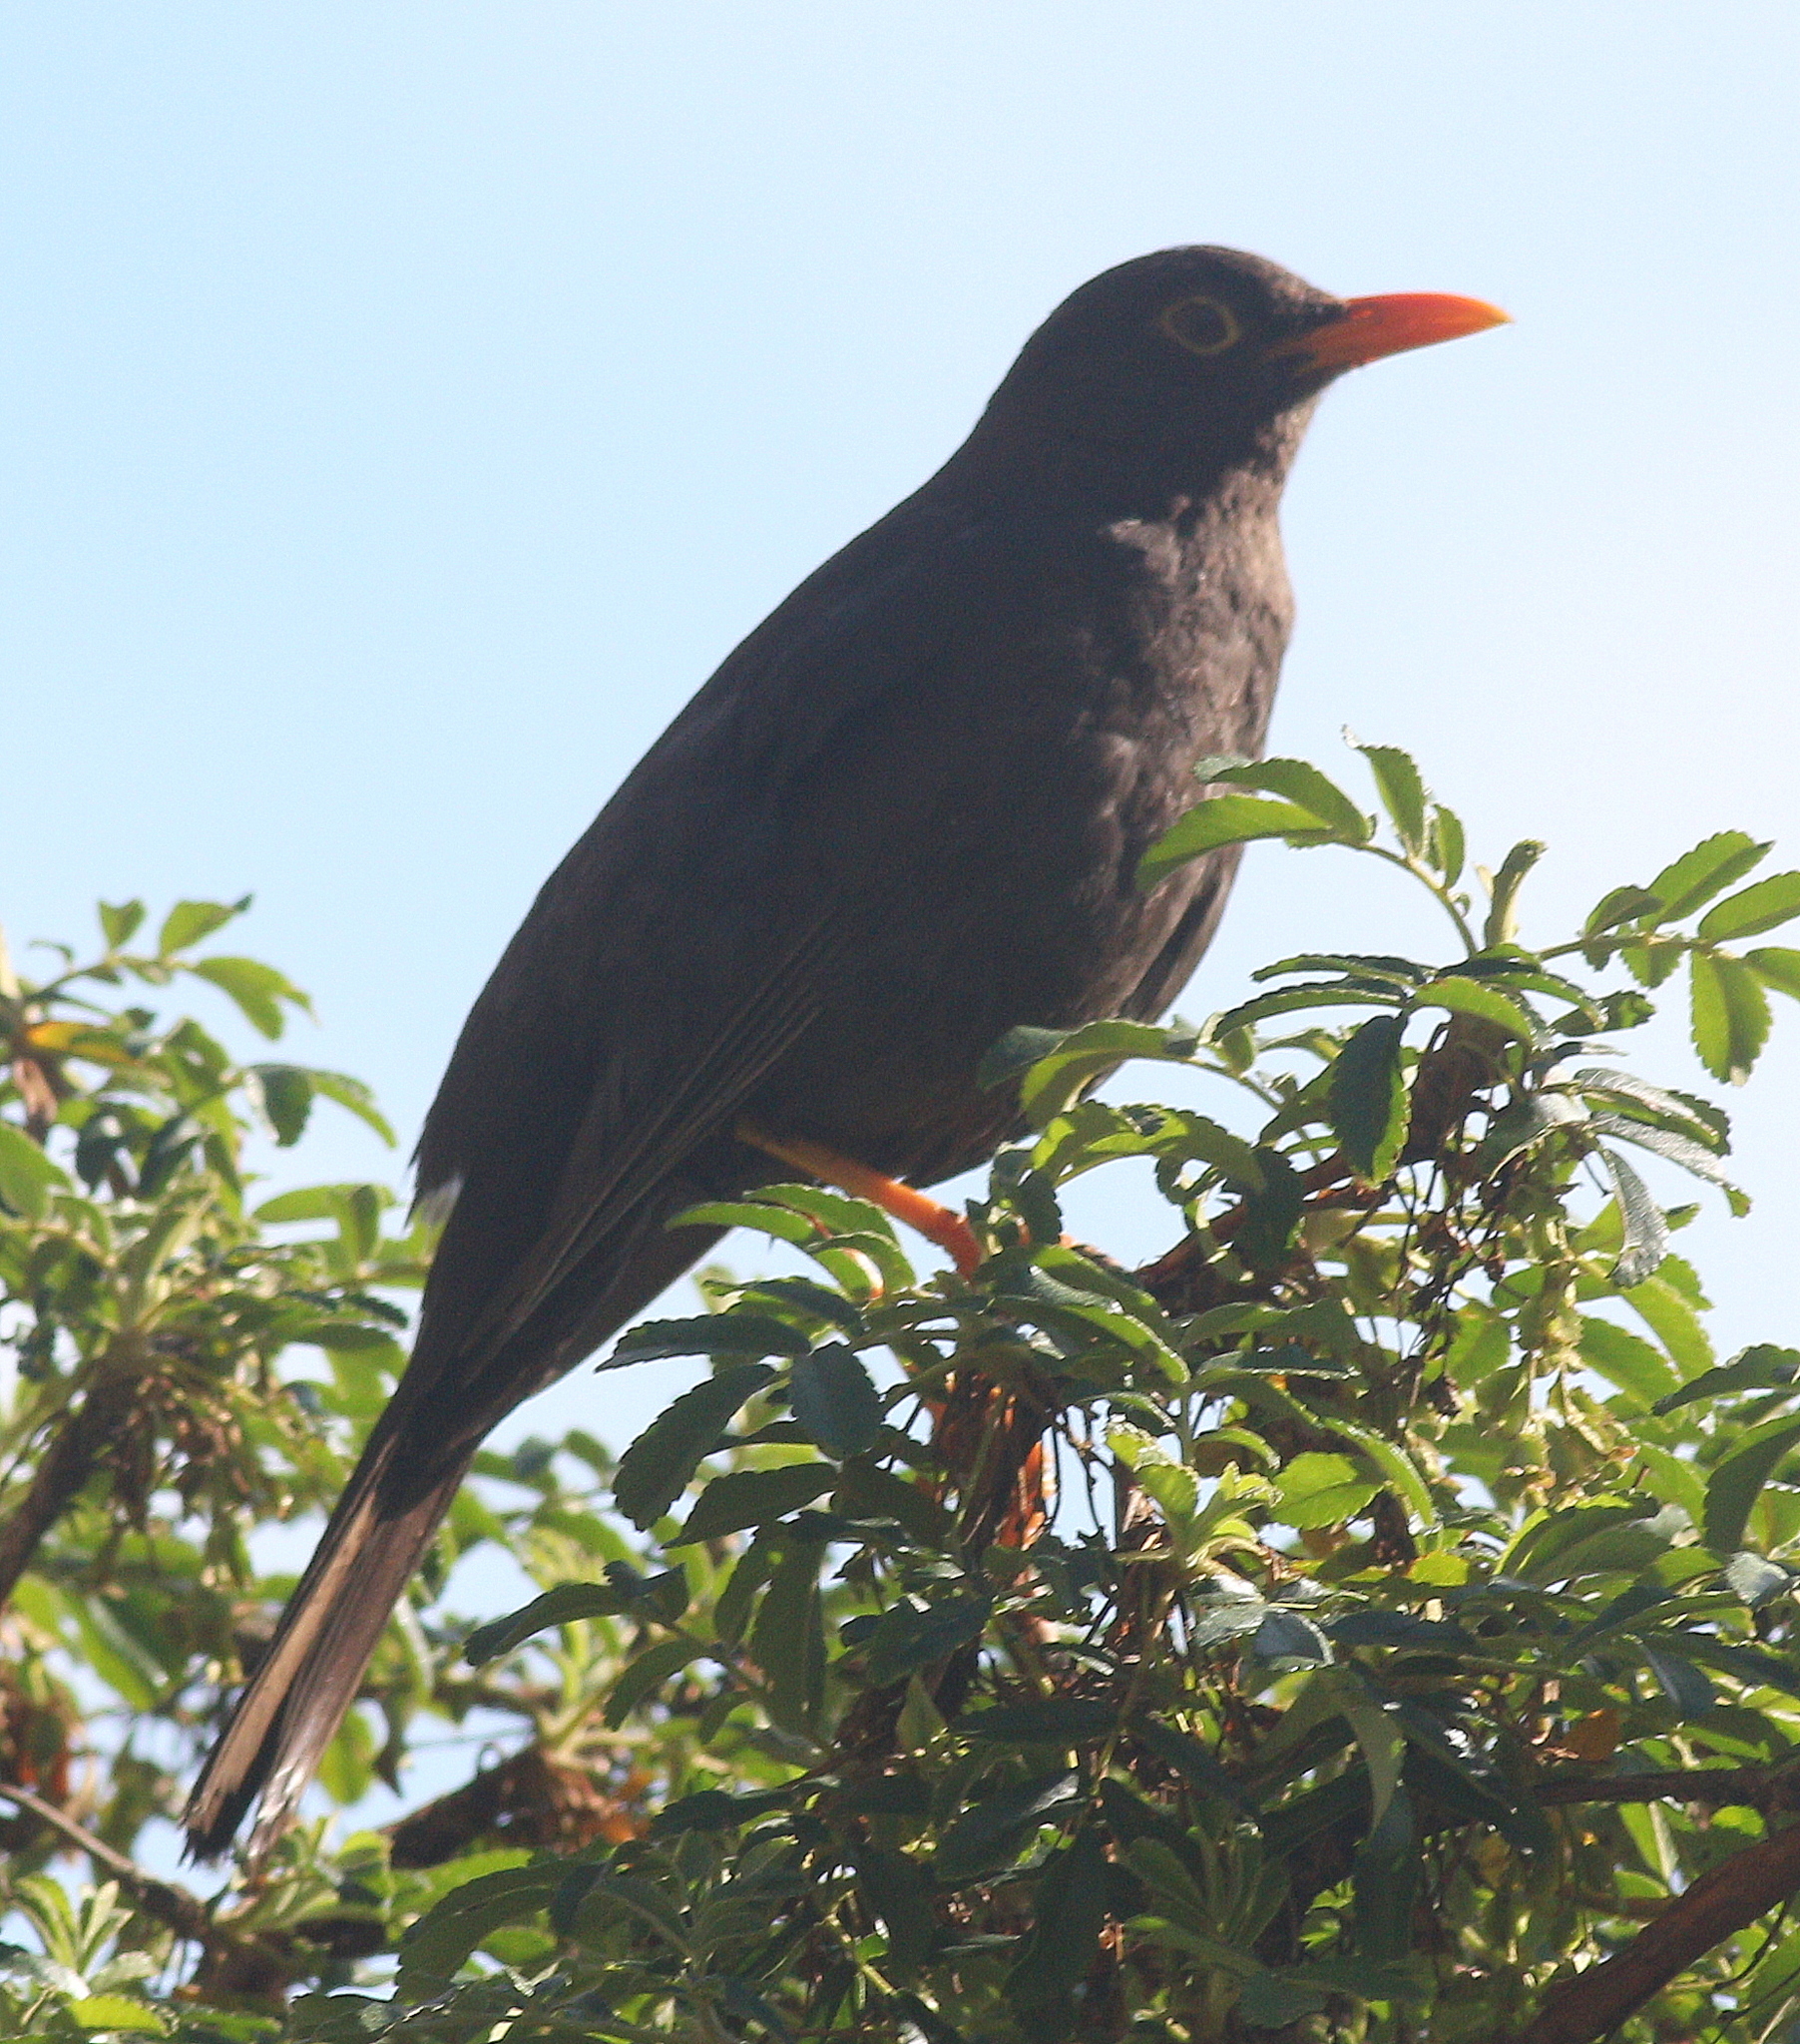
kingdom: Animalia
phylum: Chordata
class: Aves
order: Passeriformes
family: Turdidae
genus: Turdus
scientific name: Turdus chiguanco
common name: Chiguanco thrush
